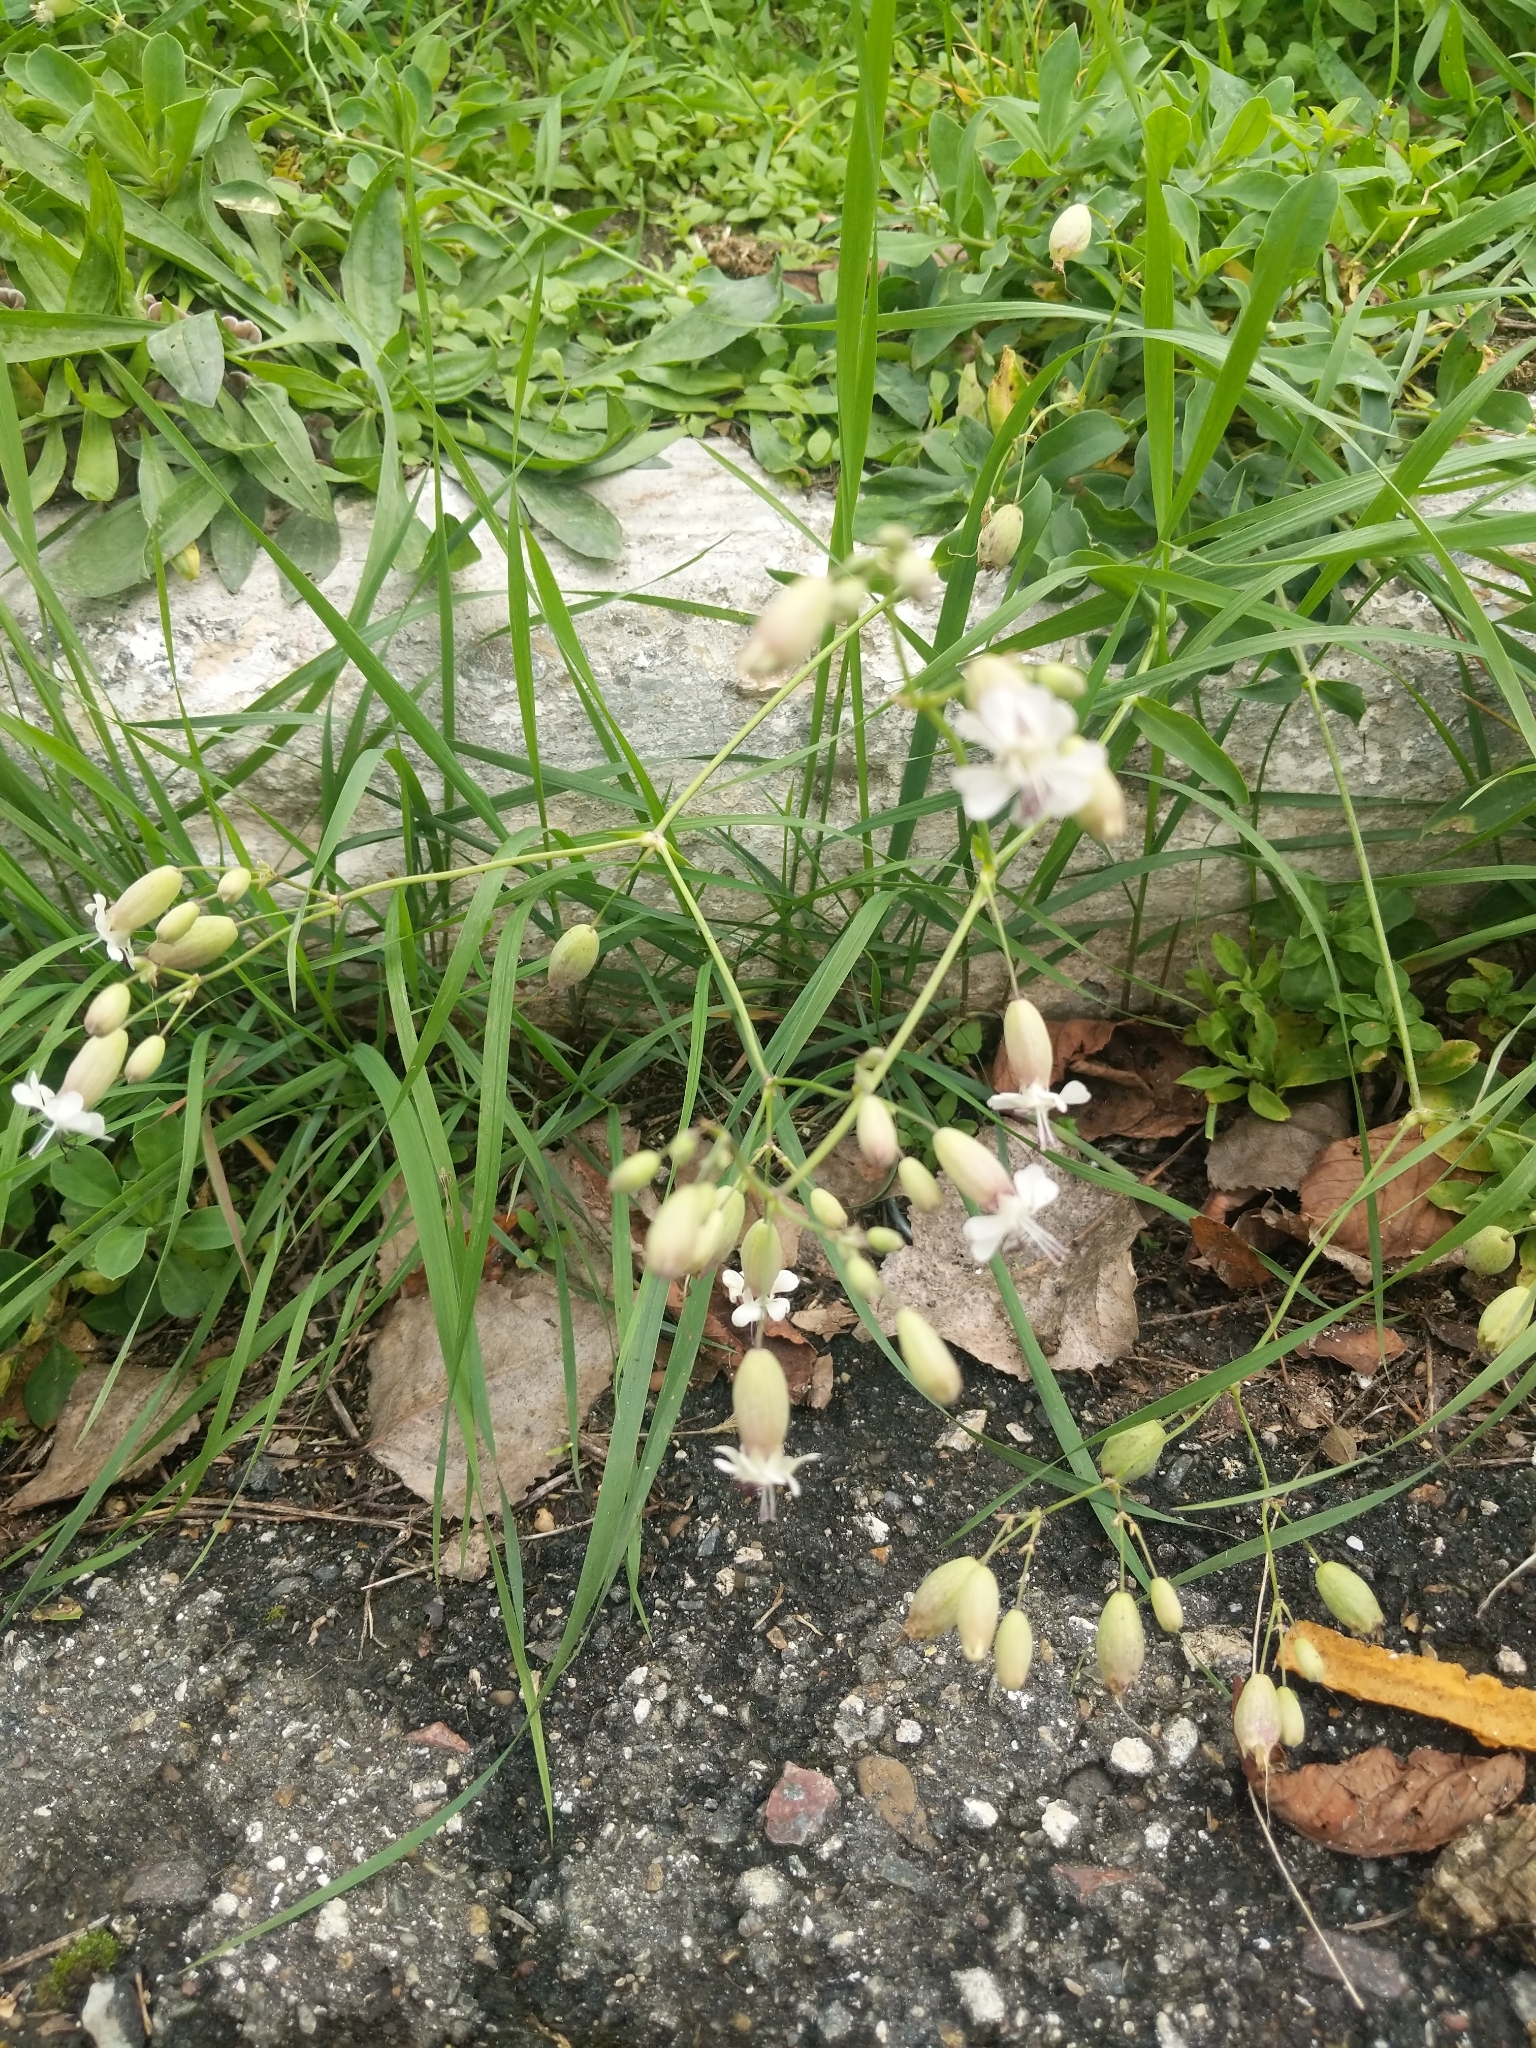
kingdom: Plantae
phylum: Tracheophyta
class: Magnoliopsida
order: Caryophyllales
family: Caryophyllaceae
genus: Silene
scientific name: Silene vulgaris
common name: Bladder campion
